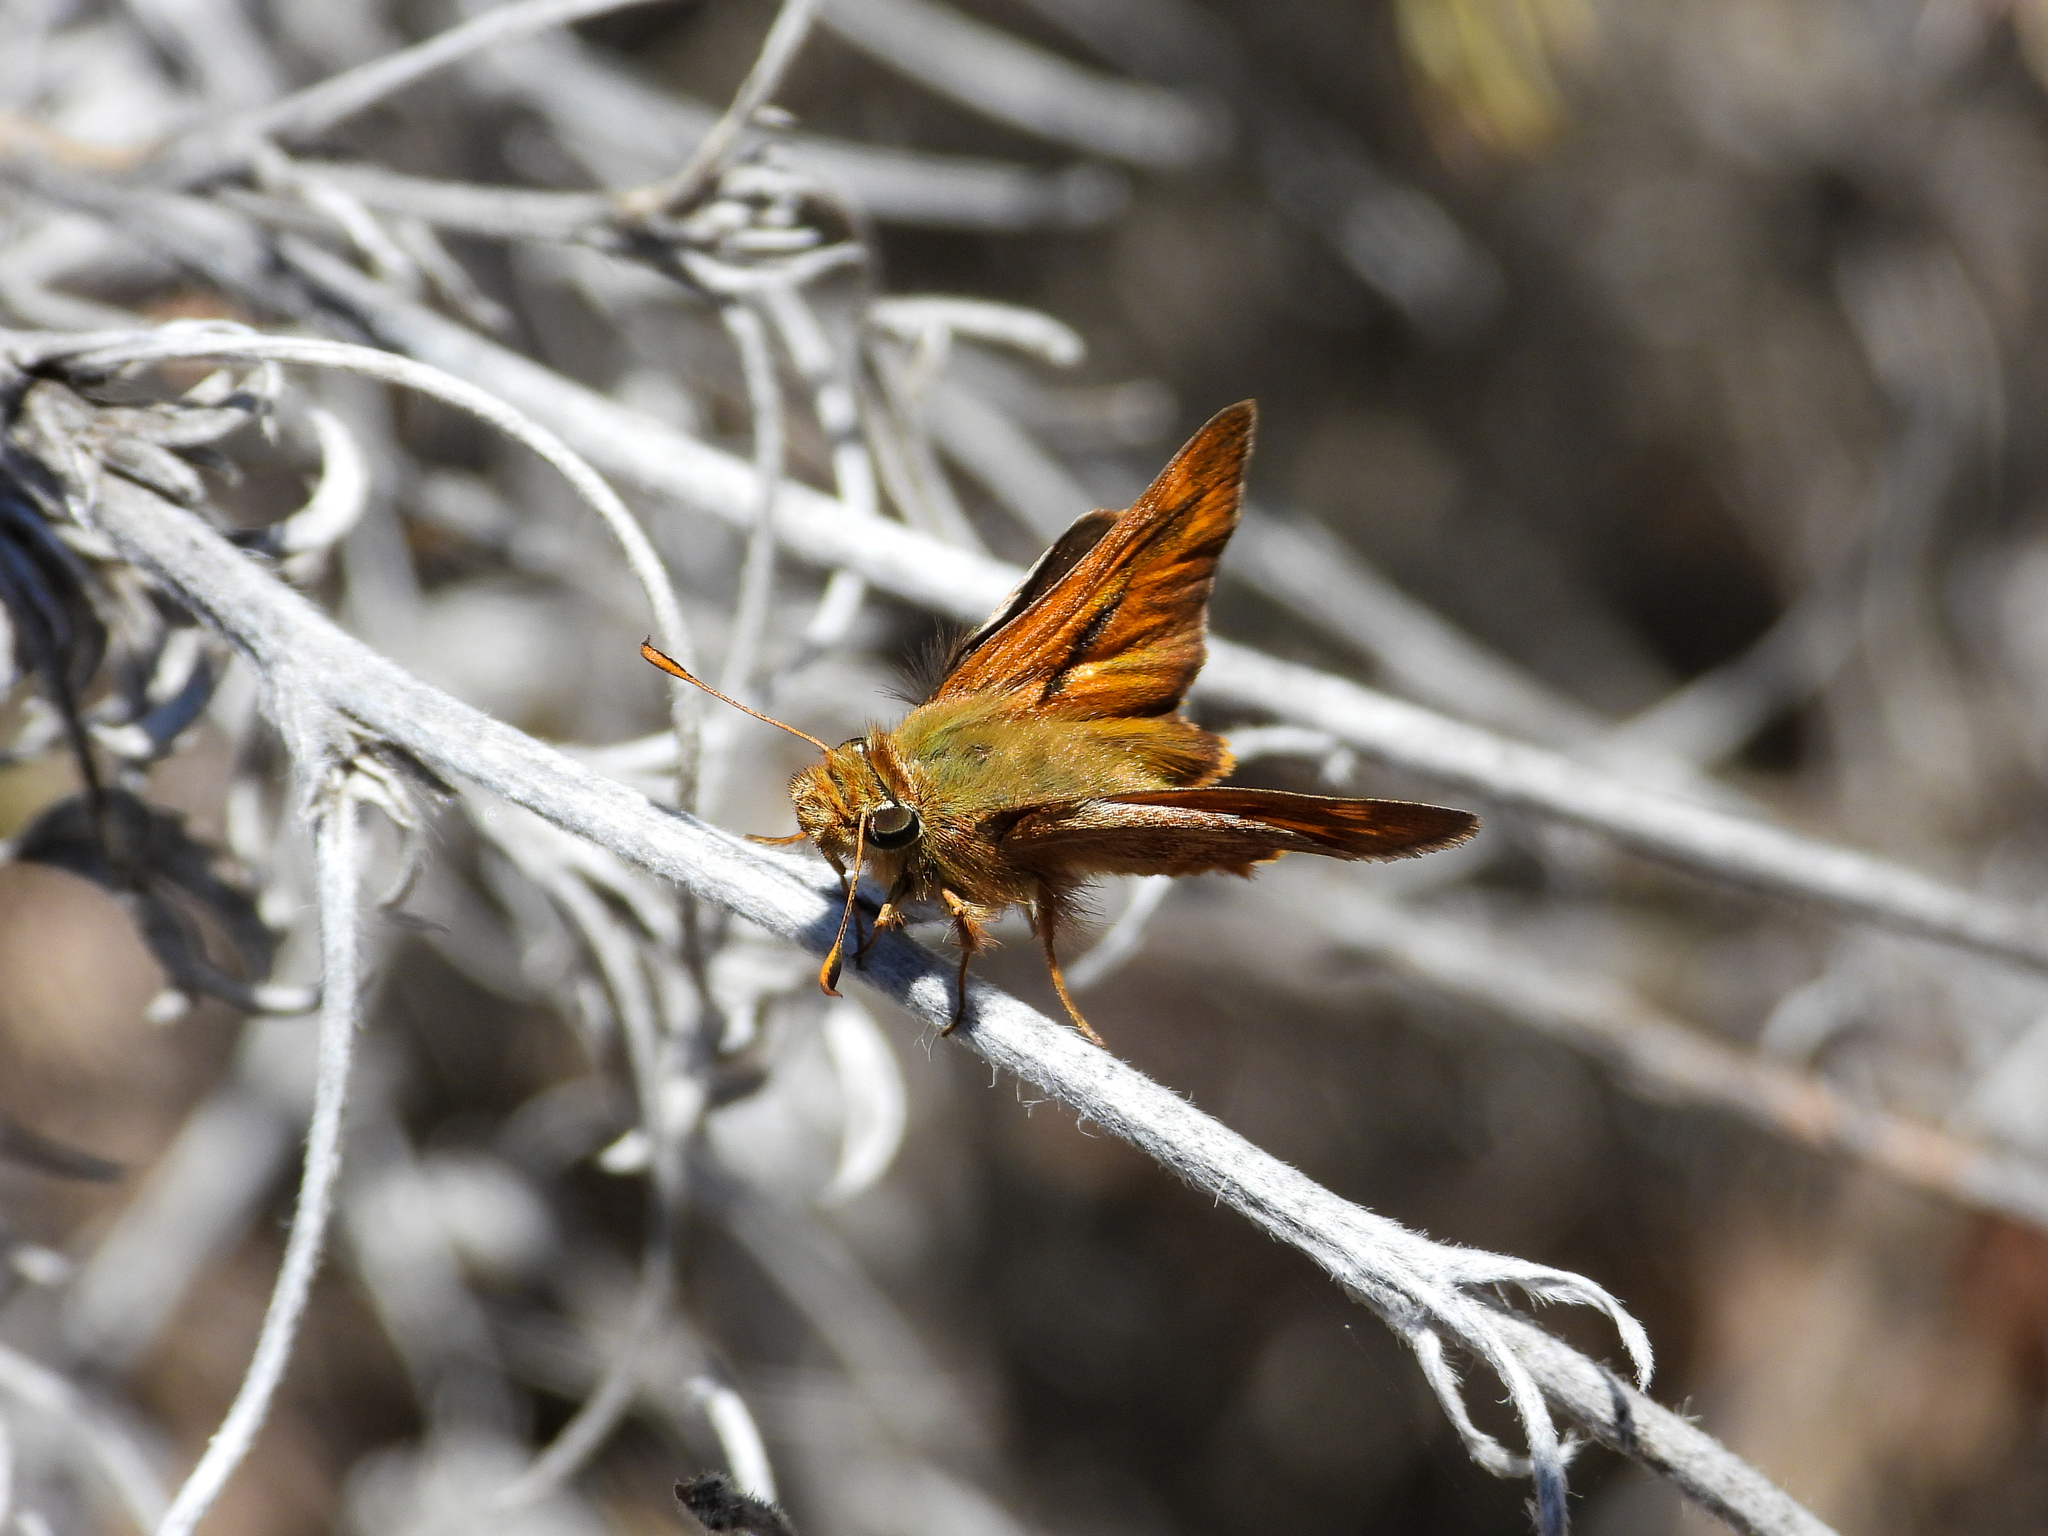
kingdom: Animalia
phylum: Arthropoda
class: Insecta
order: Lepidoptera
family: Hesperiidae
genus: Ochlodes
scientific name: Ochlodes sylvanoides
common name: Woodland skipper
